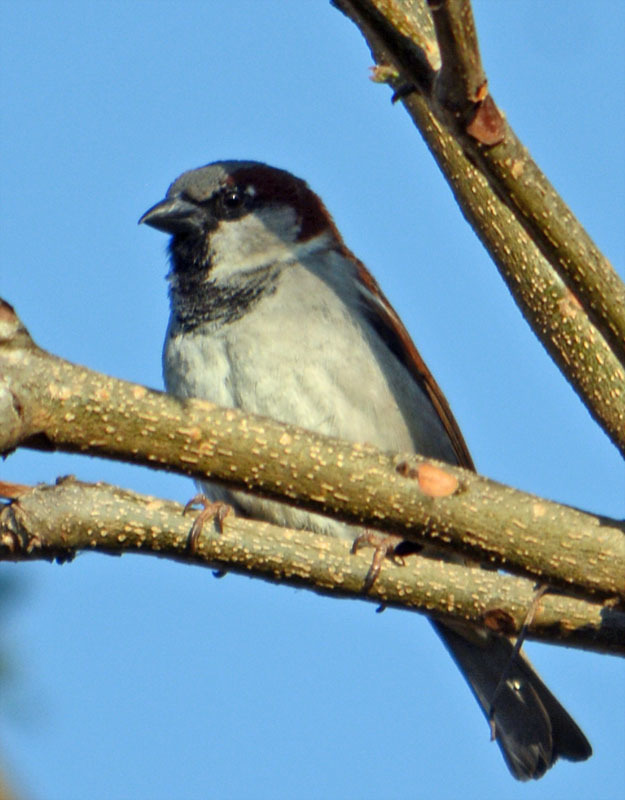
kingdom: Animalia
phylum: Chordata
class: Aves
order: Passeriformes
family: Passeridae
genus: Passer
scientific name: Passer domesticus
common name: House sparrow
